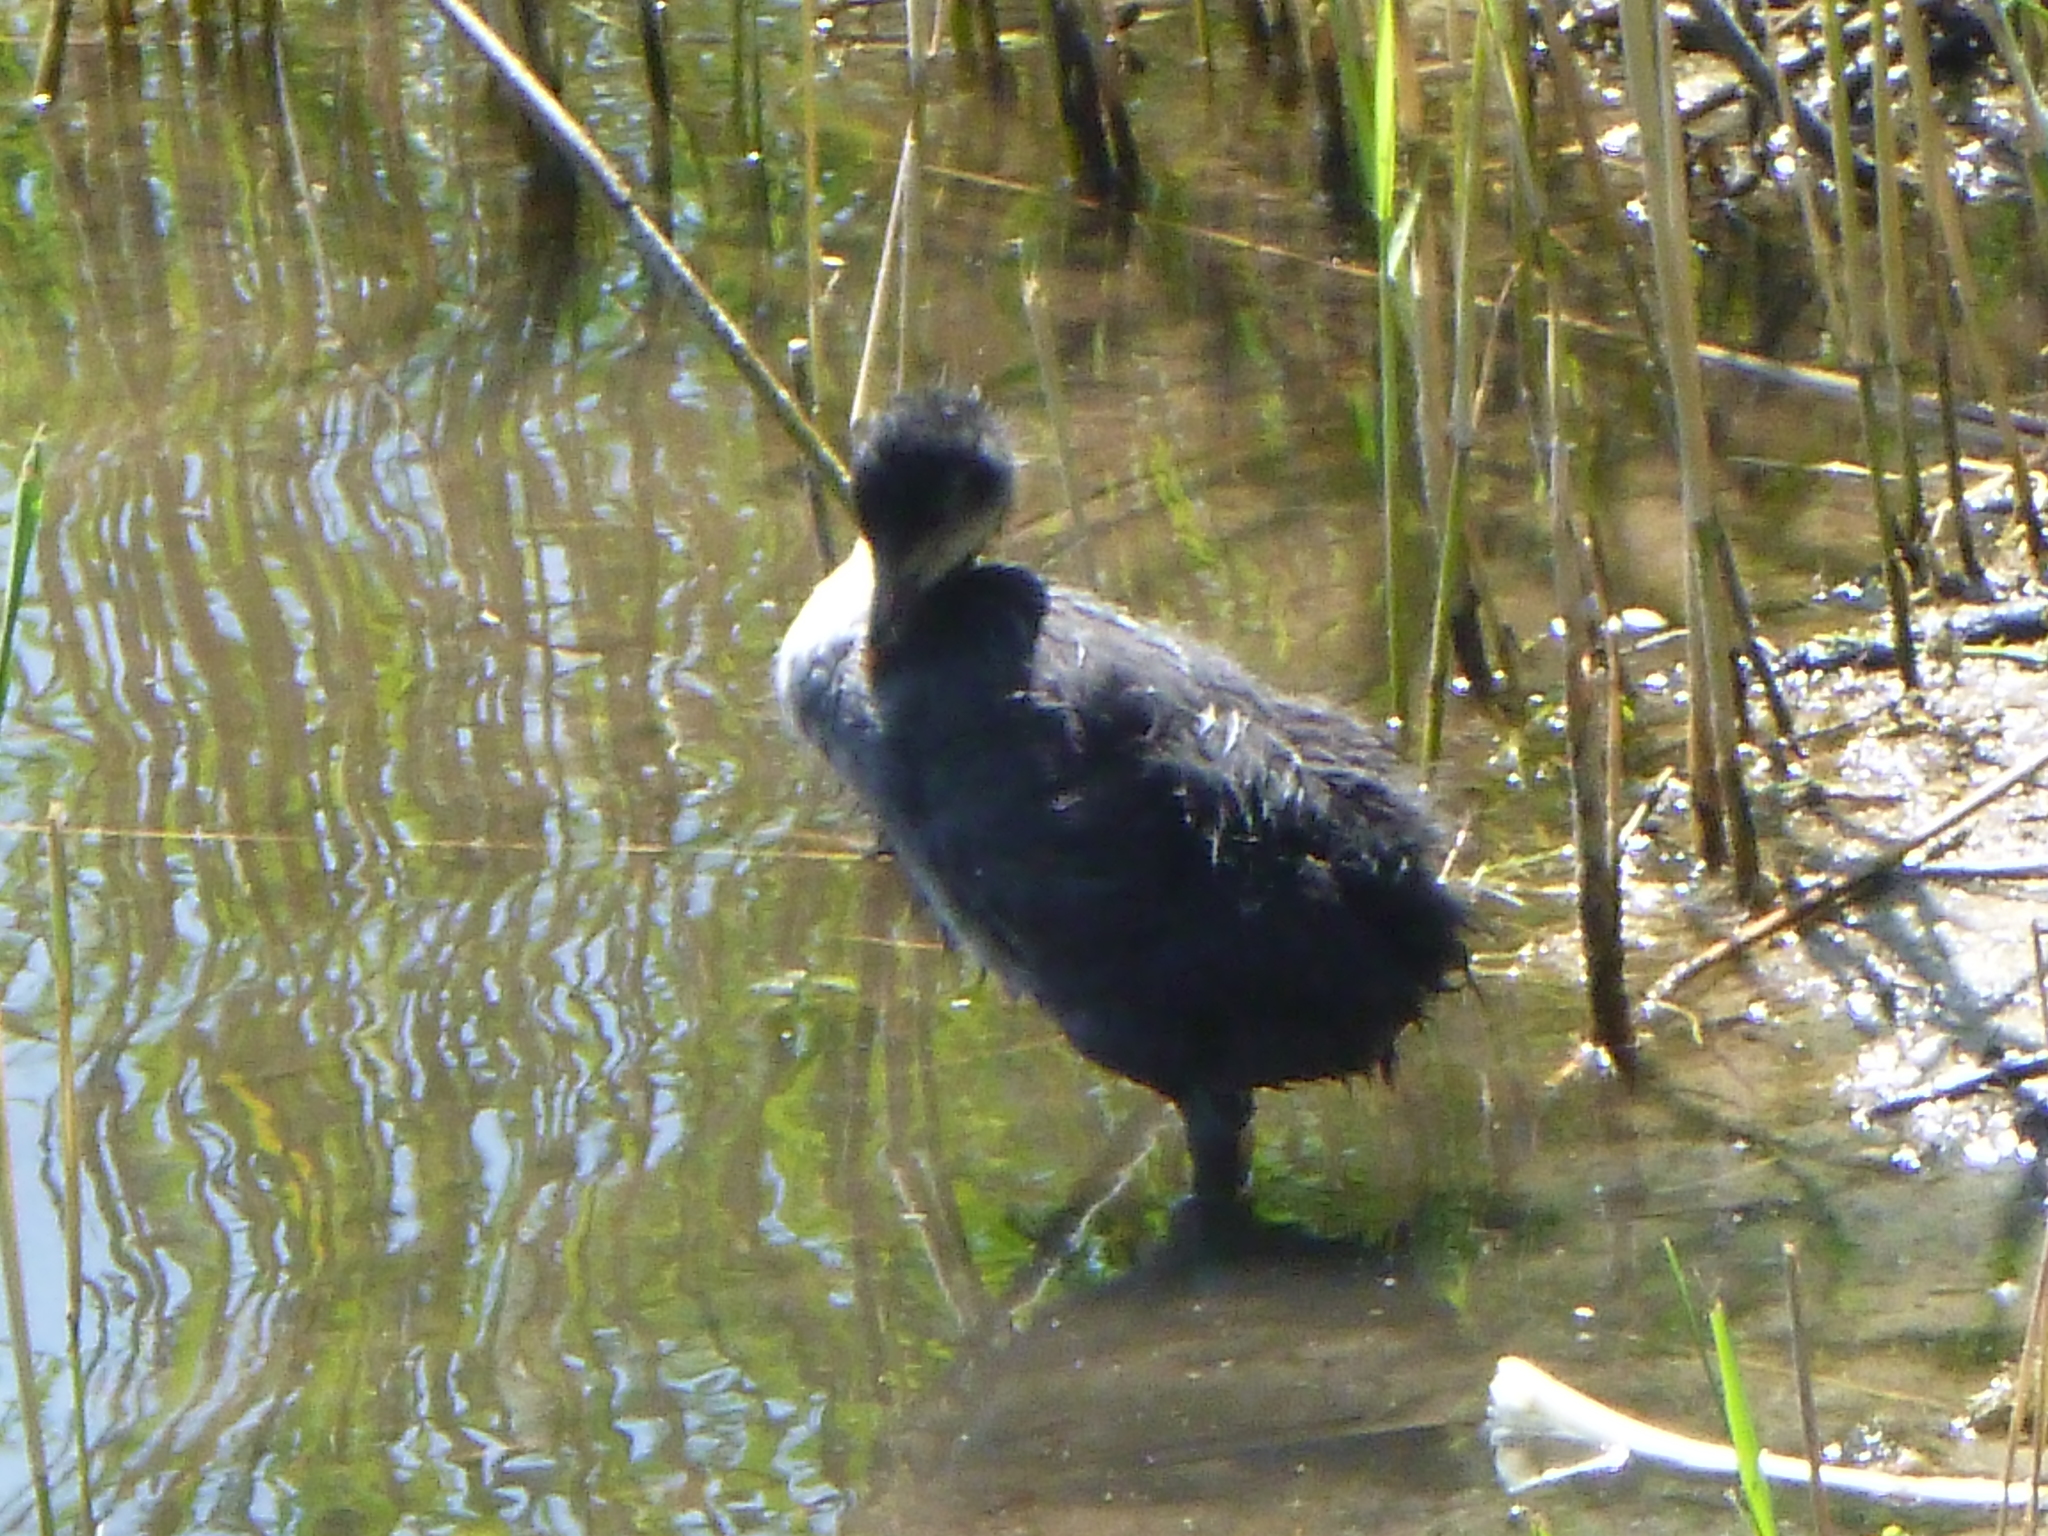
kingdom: Animalia
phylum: Chordata
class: Aves
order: Gruiformes
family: Rallidae
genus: Fulica
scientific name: Fulica atra
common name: Eurasian coot
